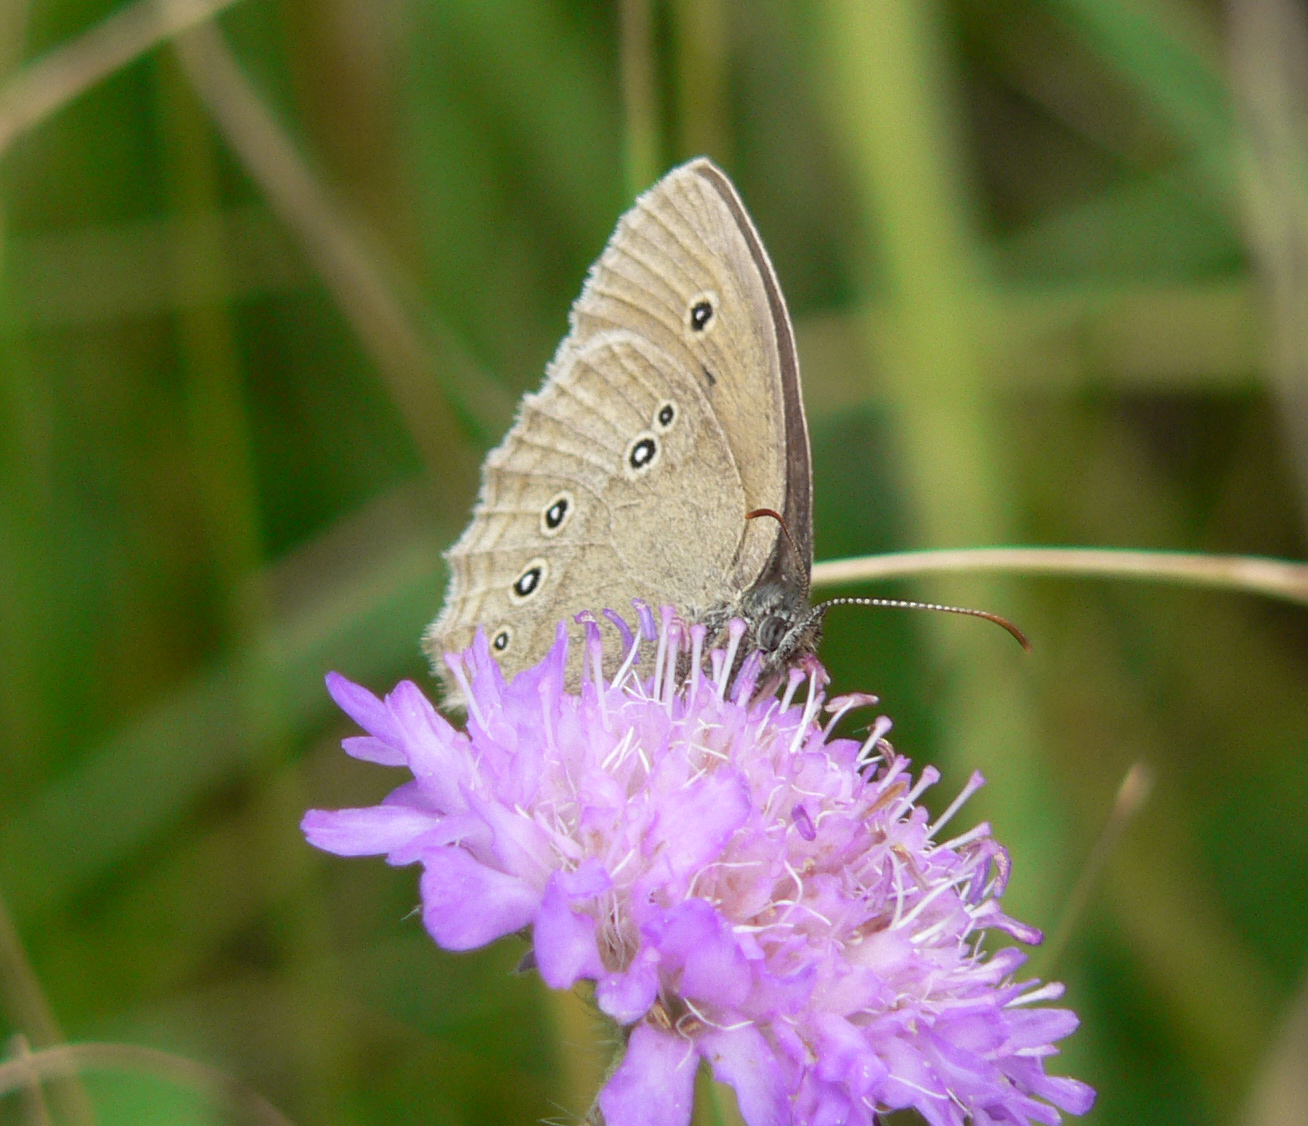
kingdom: Animalia
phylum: Arthropoda
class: Insecta
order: Lepidoptera
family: Nymphalidae
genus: Aphantopus
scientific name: Aphantopus hyperantus
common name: Ringlet
